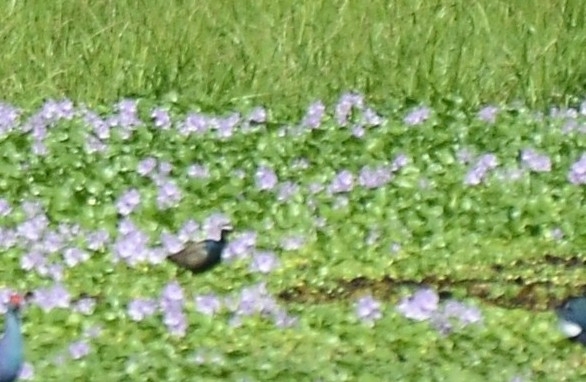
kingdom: Animalia
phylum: Chordata
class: Aves
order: Charadriiformes
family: Jacanidae
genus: Metopidius
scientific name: Metopidius indicus
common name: Bronze-winged jacana
